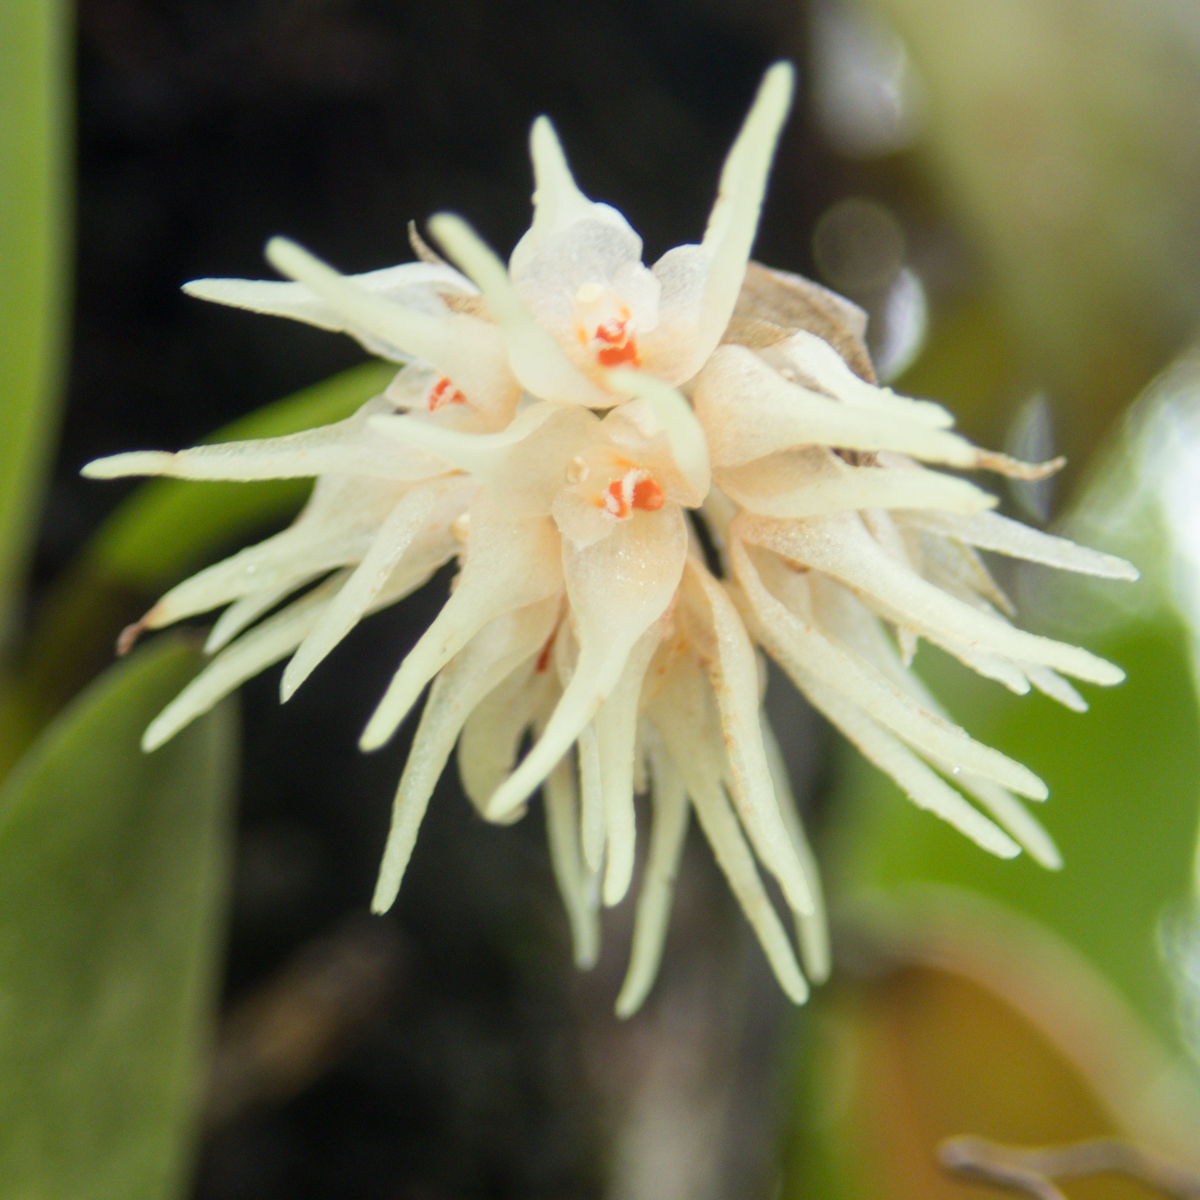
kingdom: Plantae
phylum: Tracheophyta
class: Liliopsida
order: Asparagales
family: Orchidaceae
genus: Bulbophyllum
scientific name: Bulbophyllum odoratissimum
